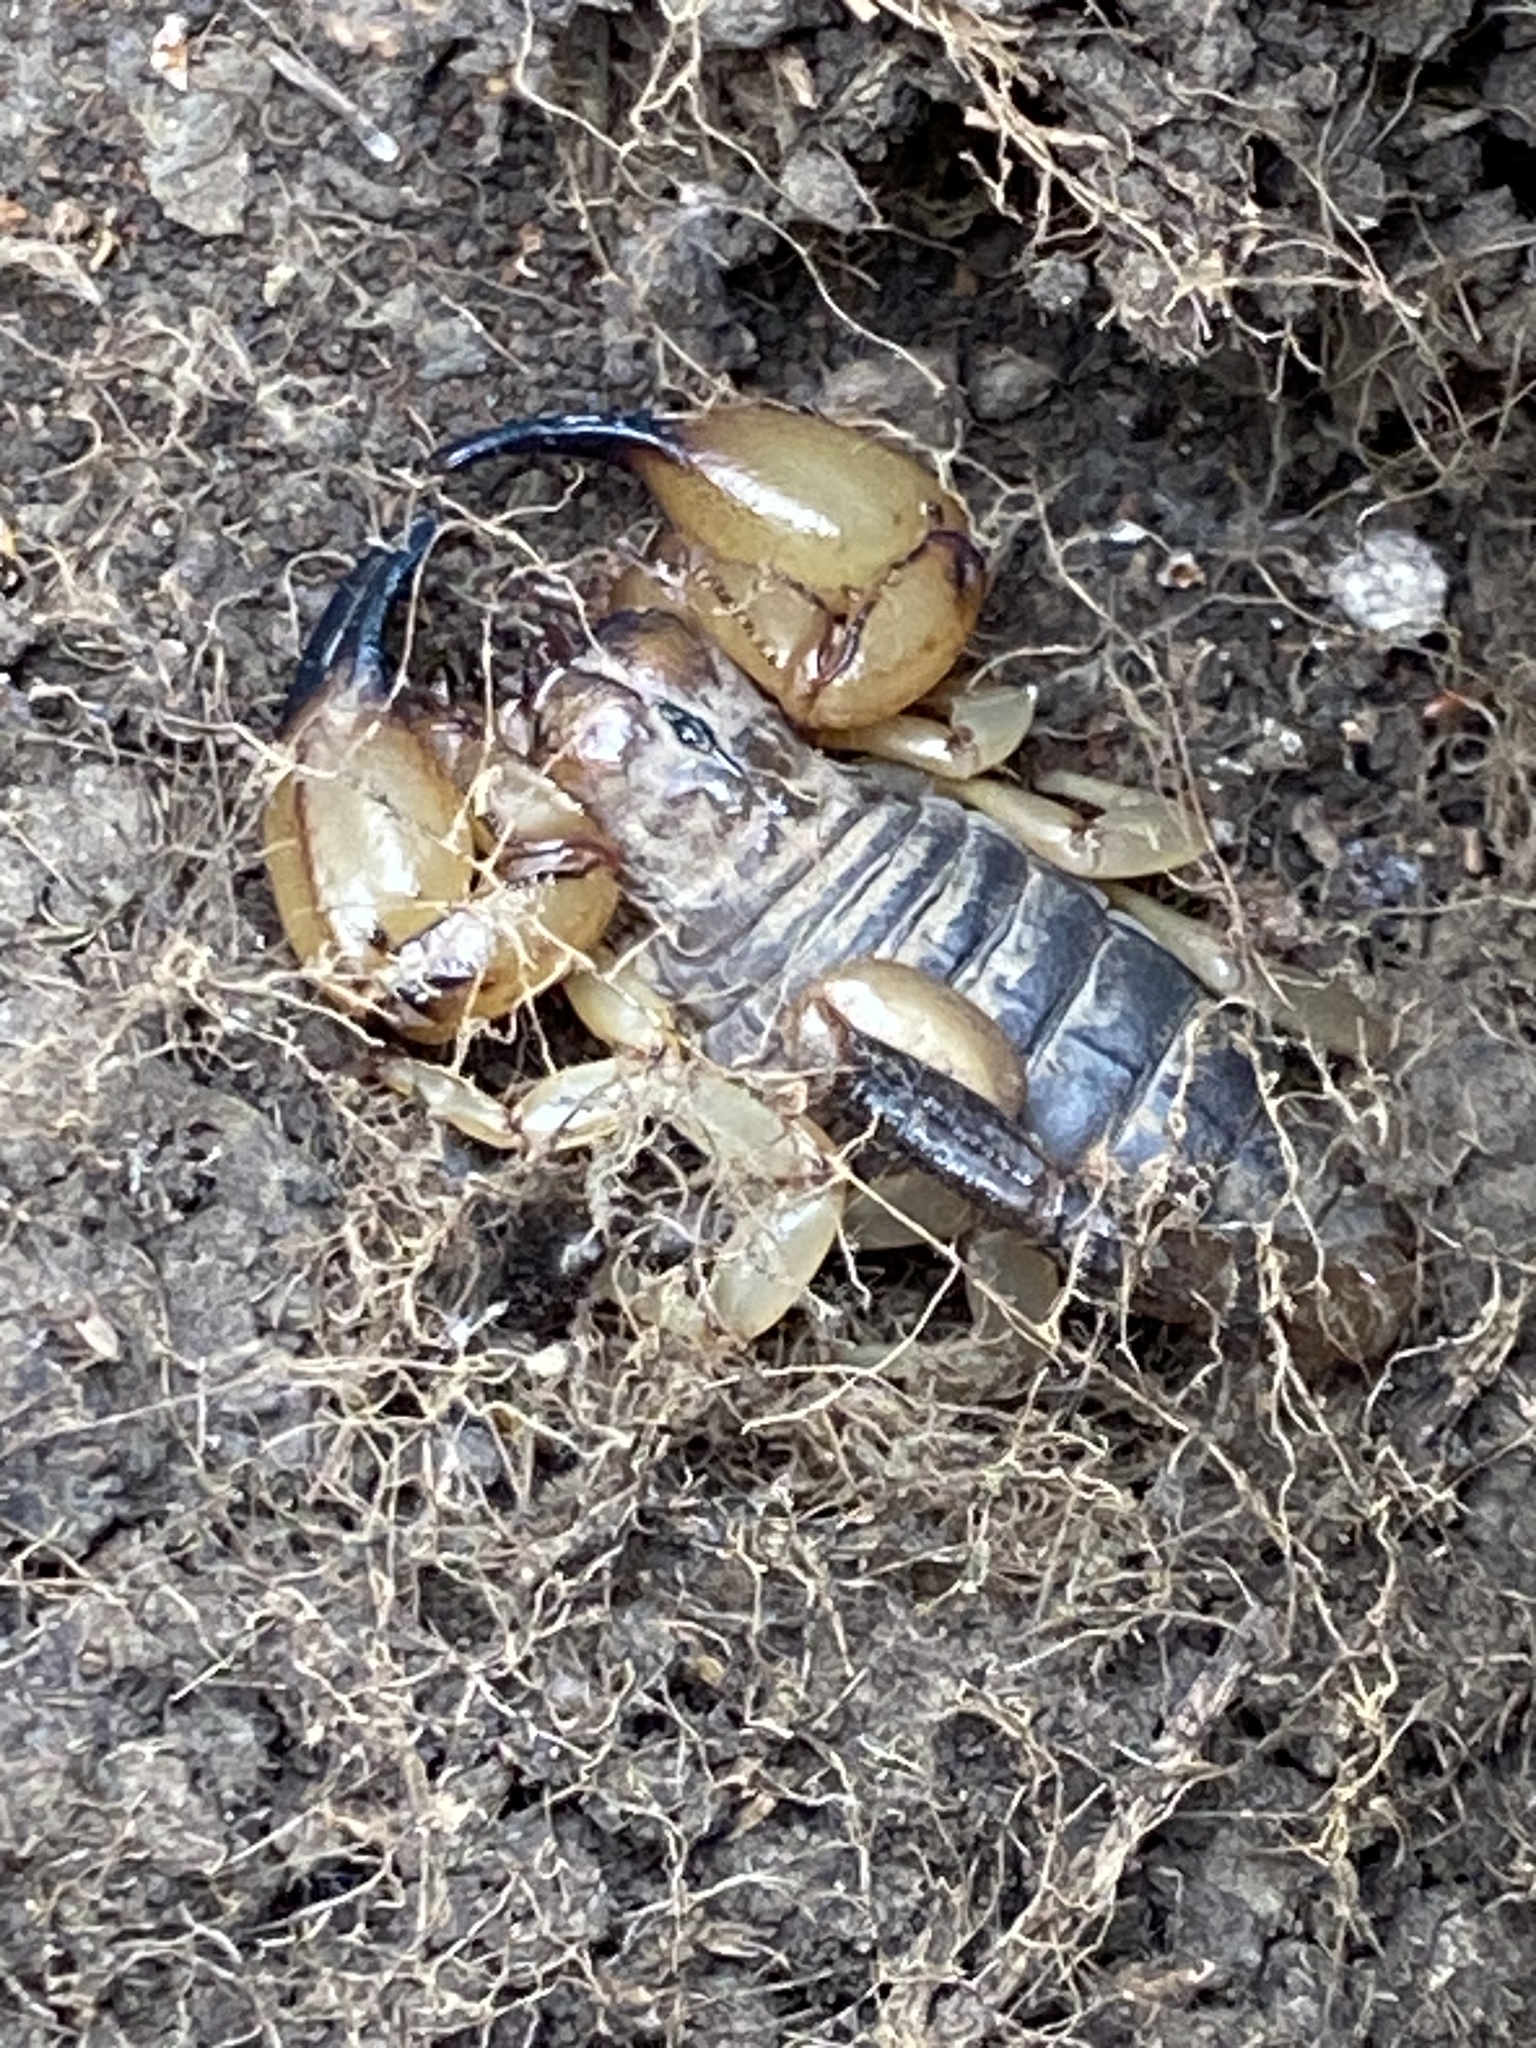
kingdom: Animalia
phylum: Arthropoda
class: Arachnida
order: Scorpiones
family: Chactidae
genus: Anuroctonus
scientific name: Anuroctonus pococki
